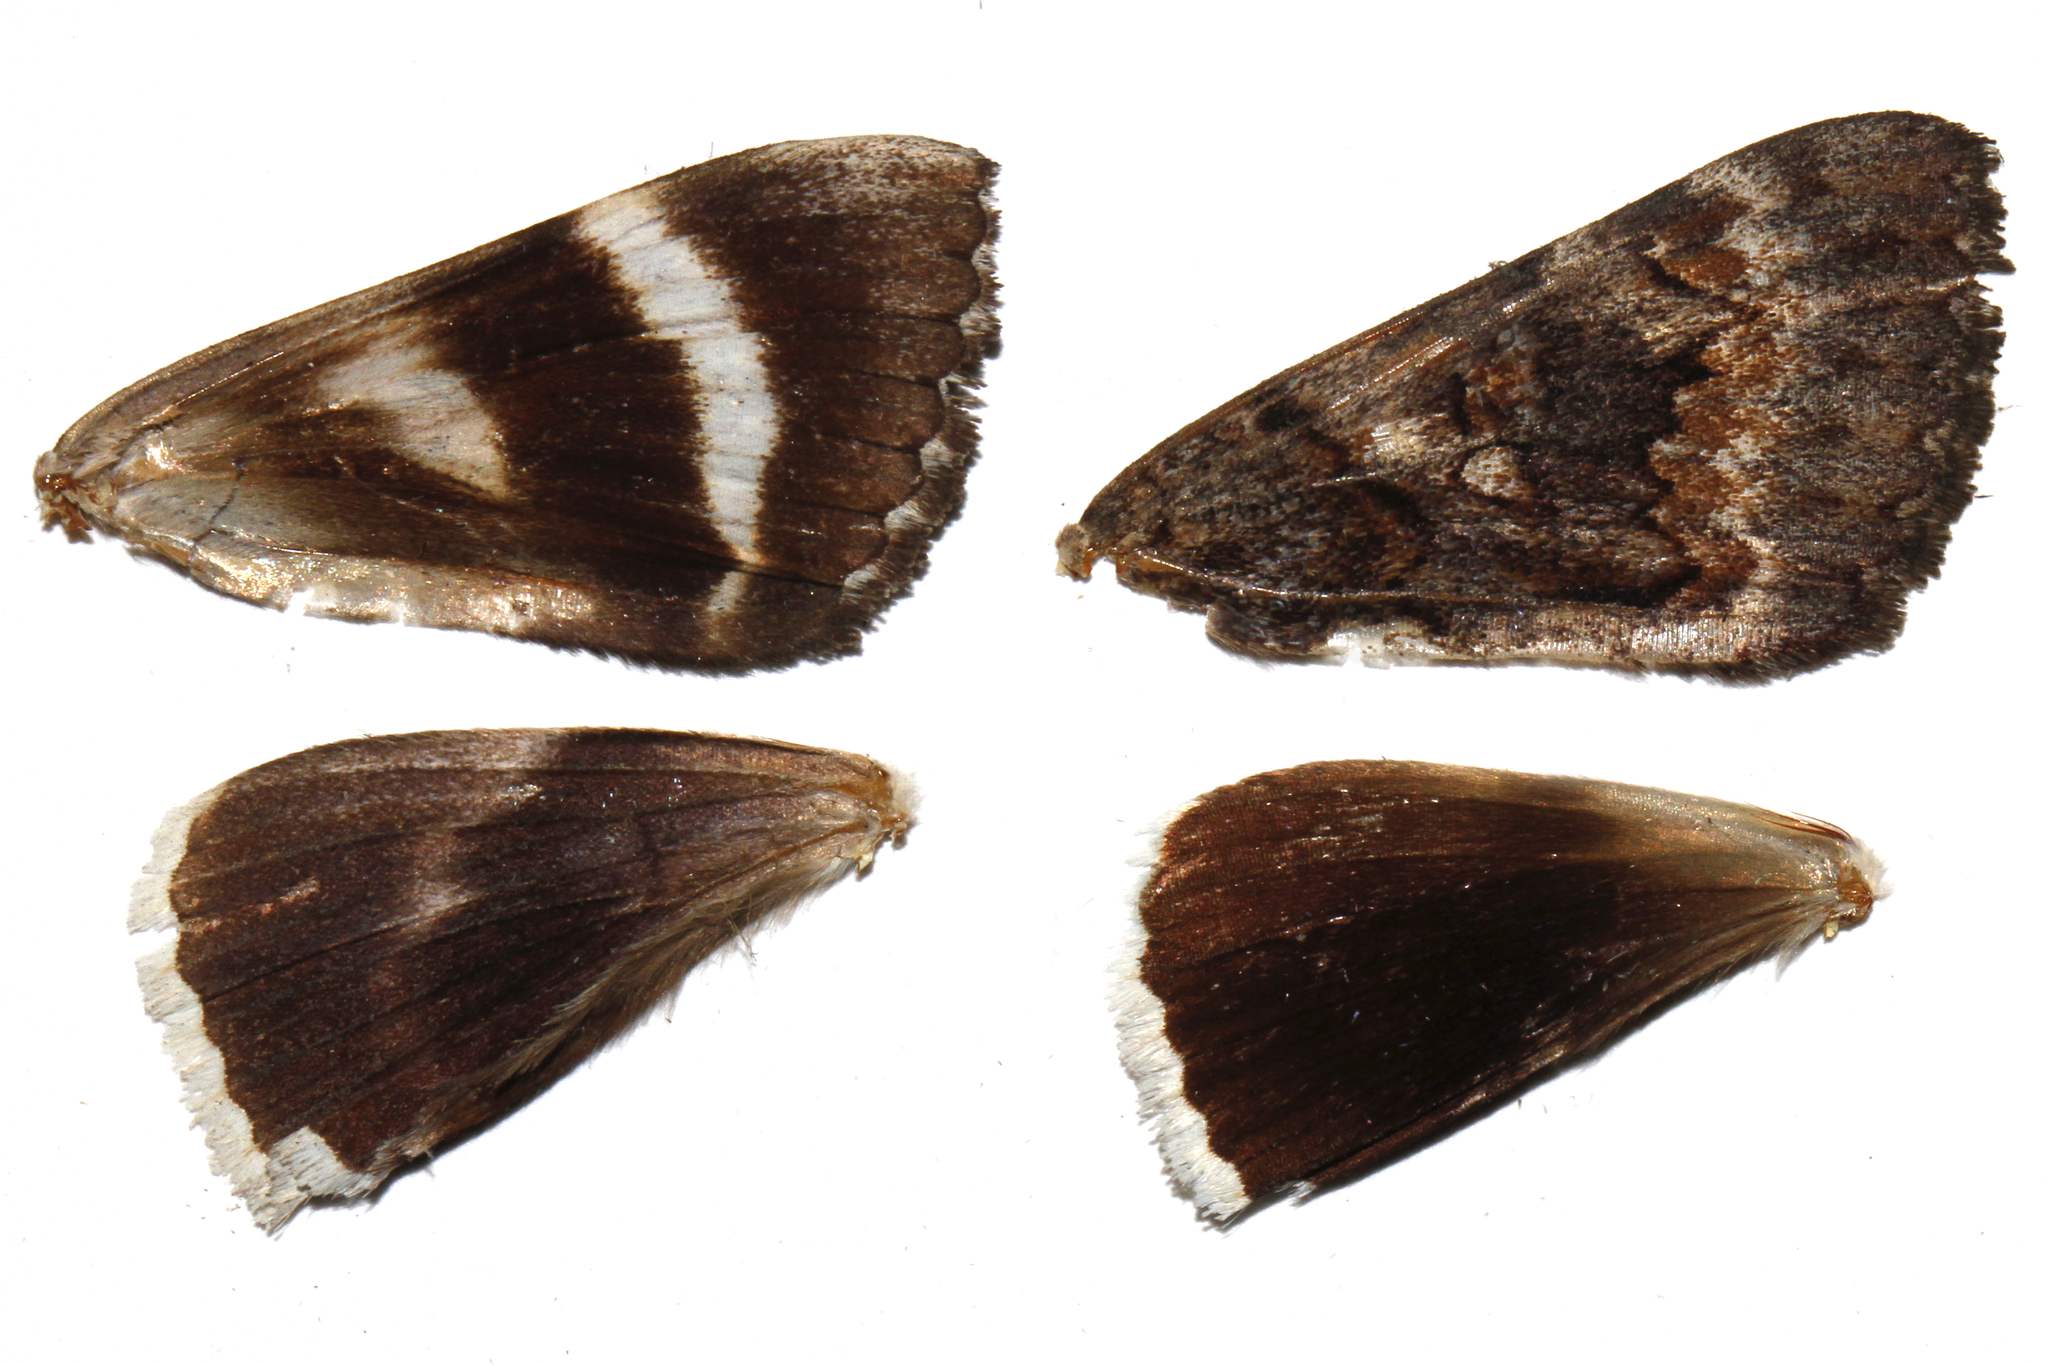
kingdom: Animalia
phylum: Arthropoda
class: Insecta
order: Lepidoptera
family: Erebidae
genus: Catocala
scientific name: Catocala epione
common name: Epione underwing
